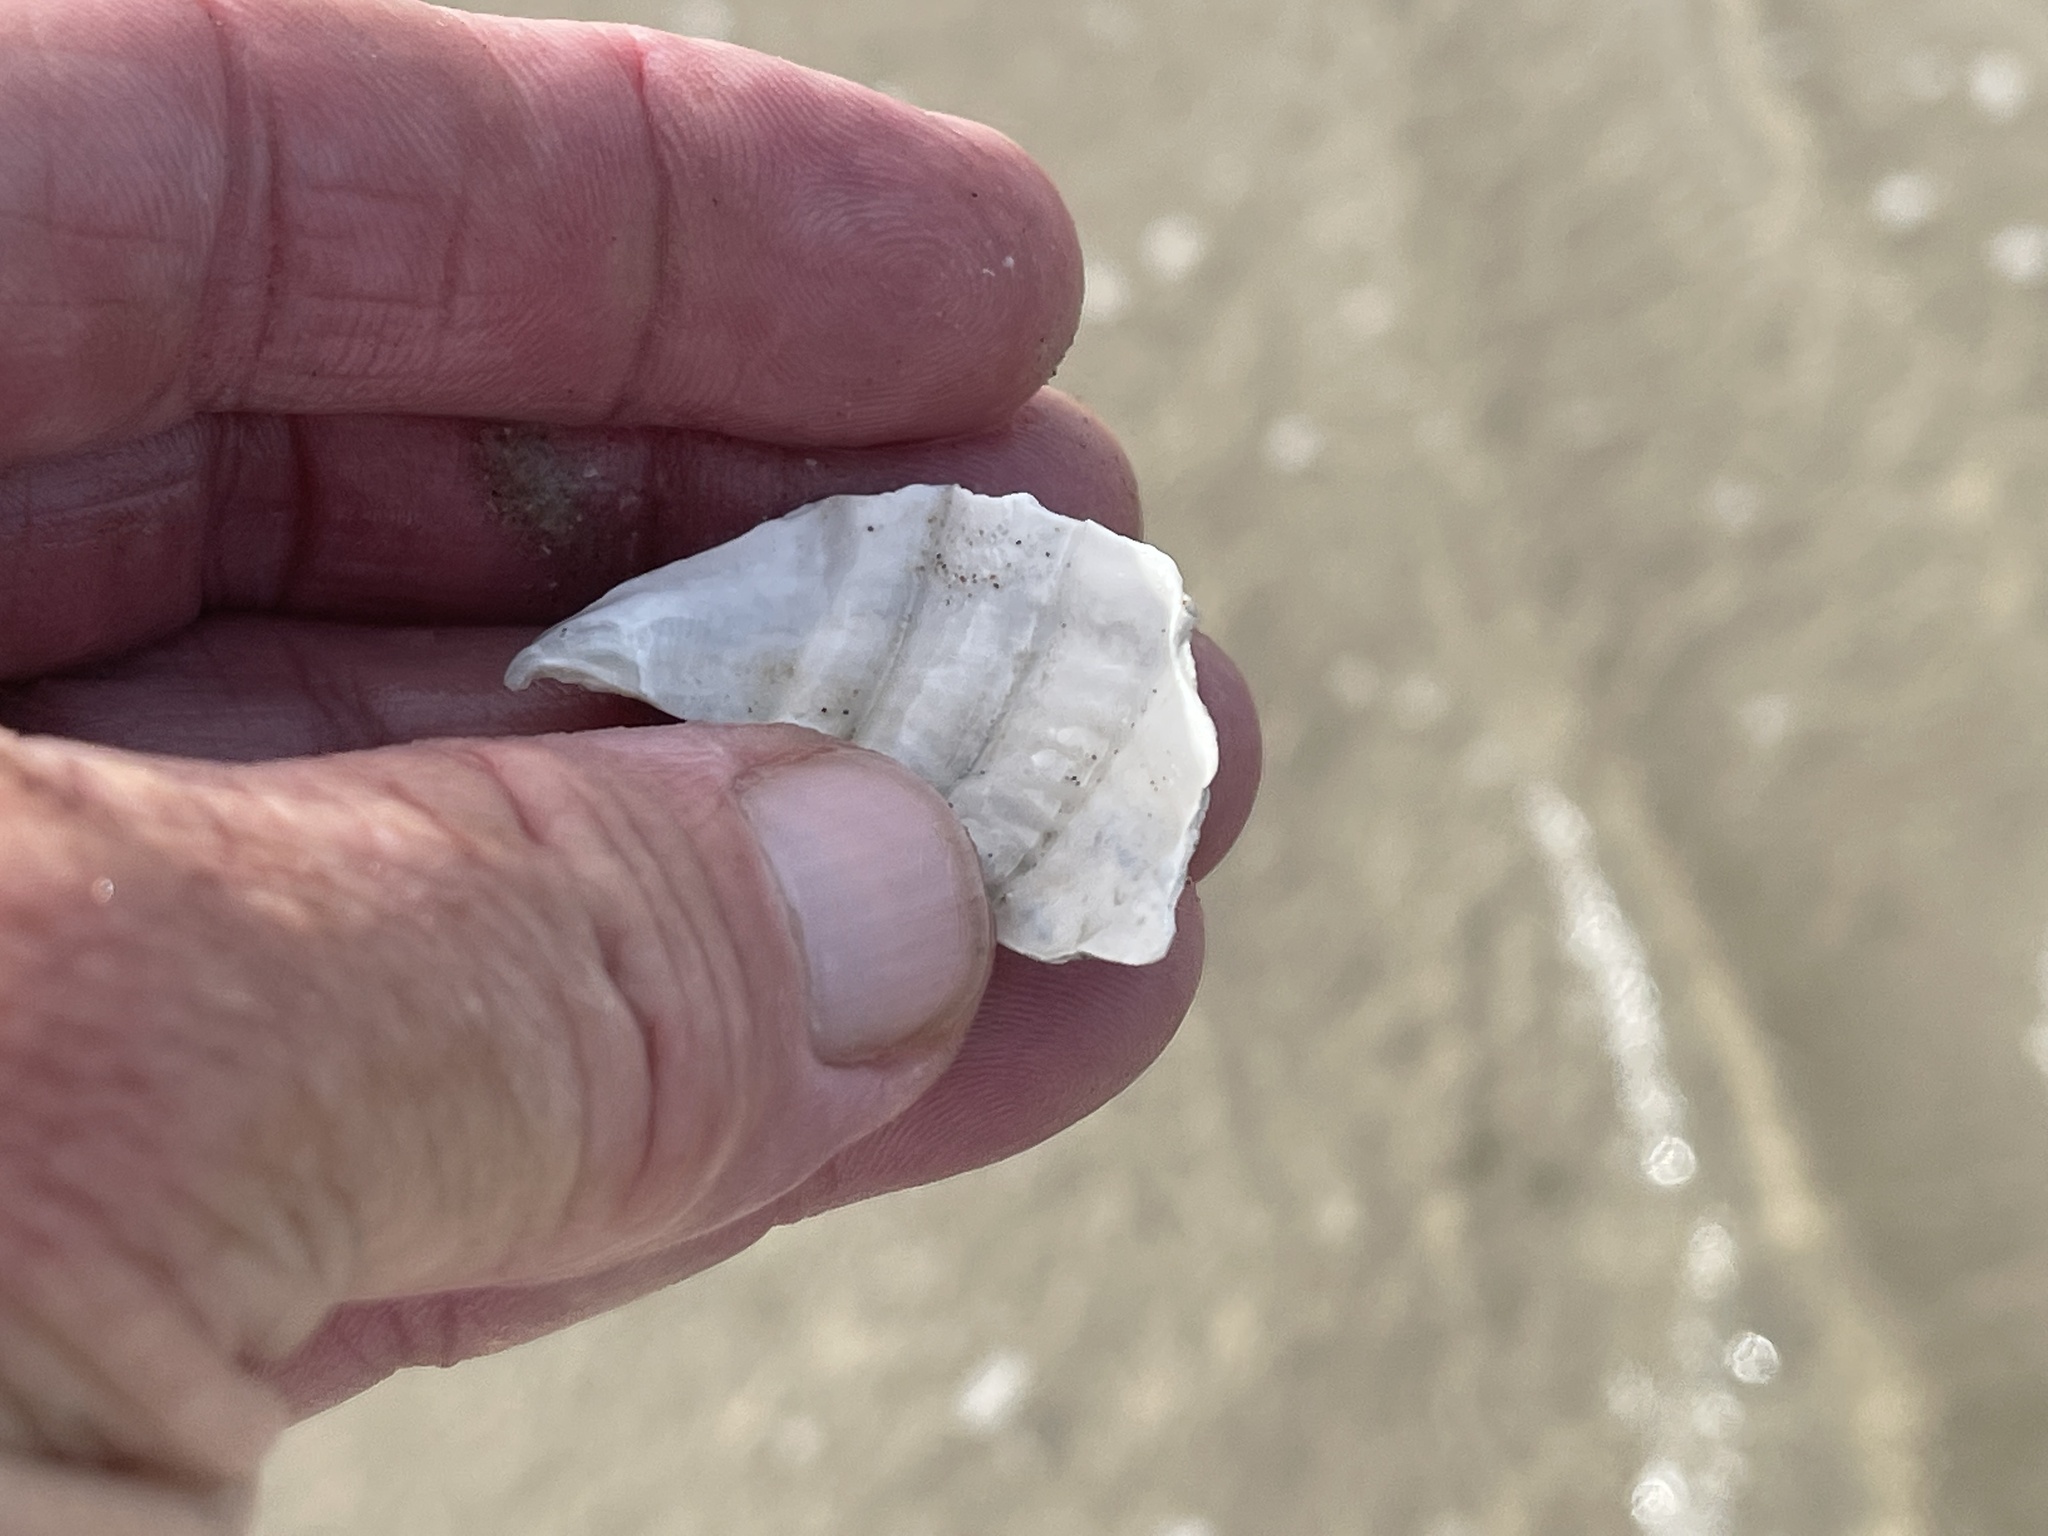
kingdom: Animalia
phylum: Mollusca
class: Bivalvia
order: Myida
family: Pholadidae
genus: Cyrtopleura
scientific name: Cyrtopleura costata
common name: Angel wing
